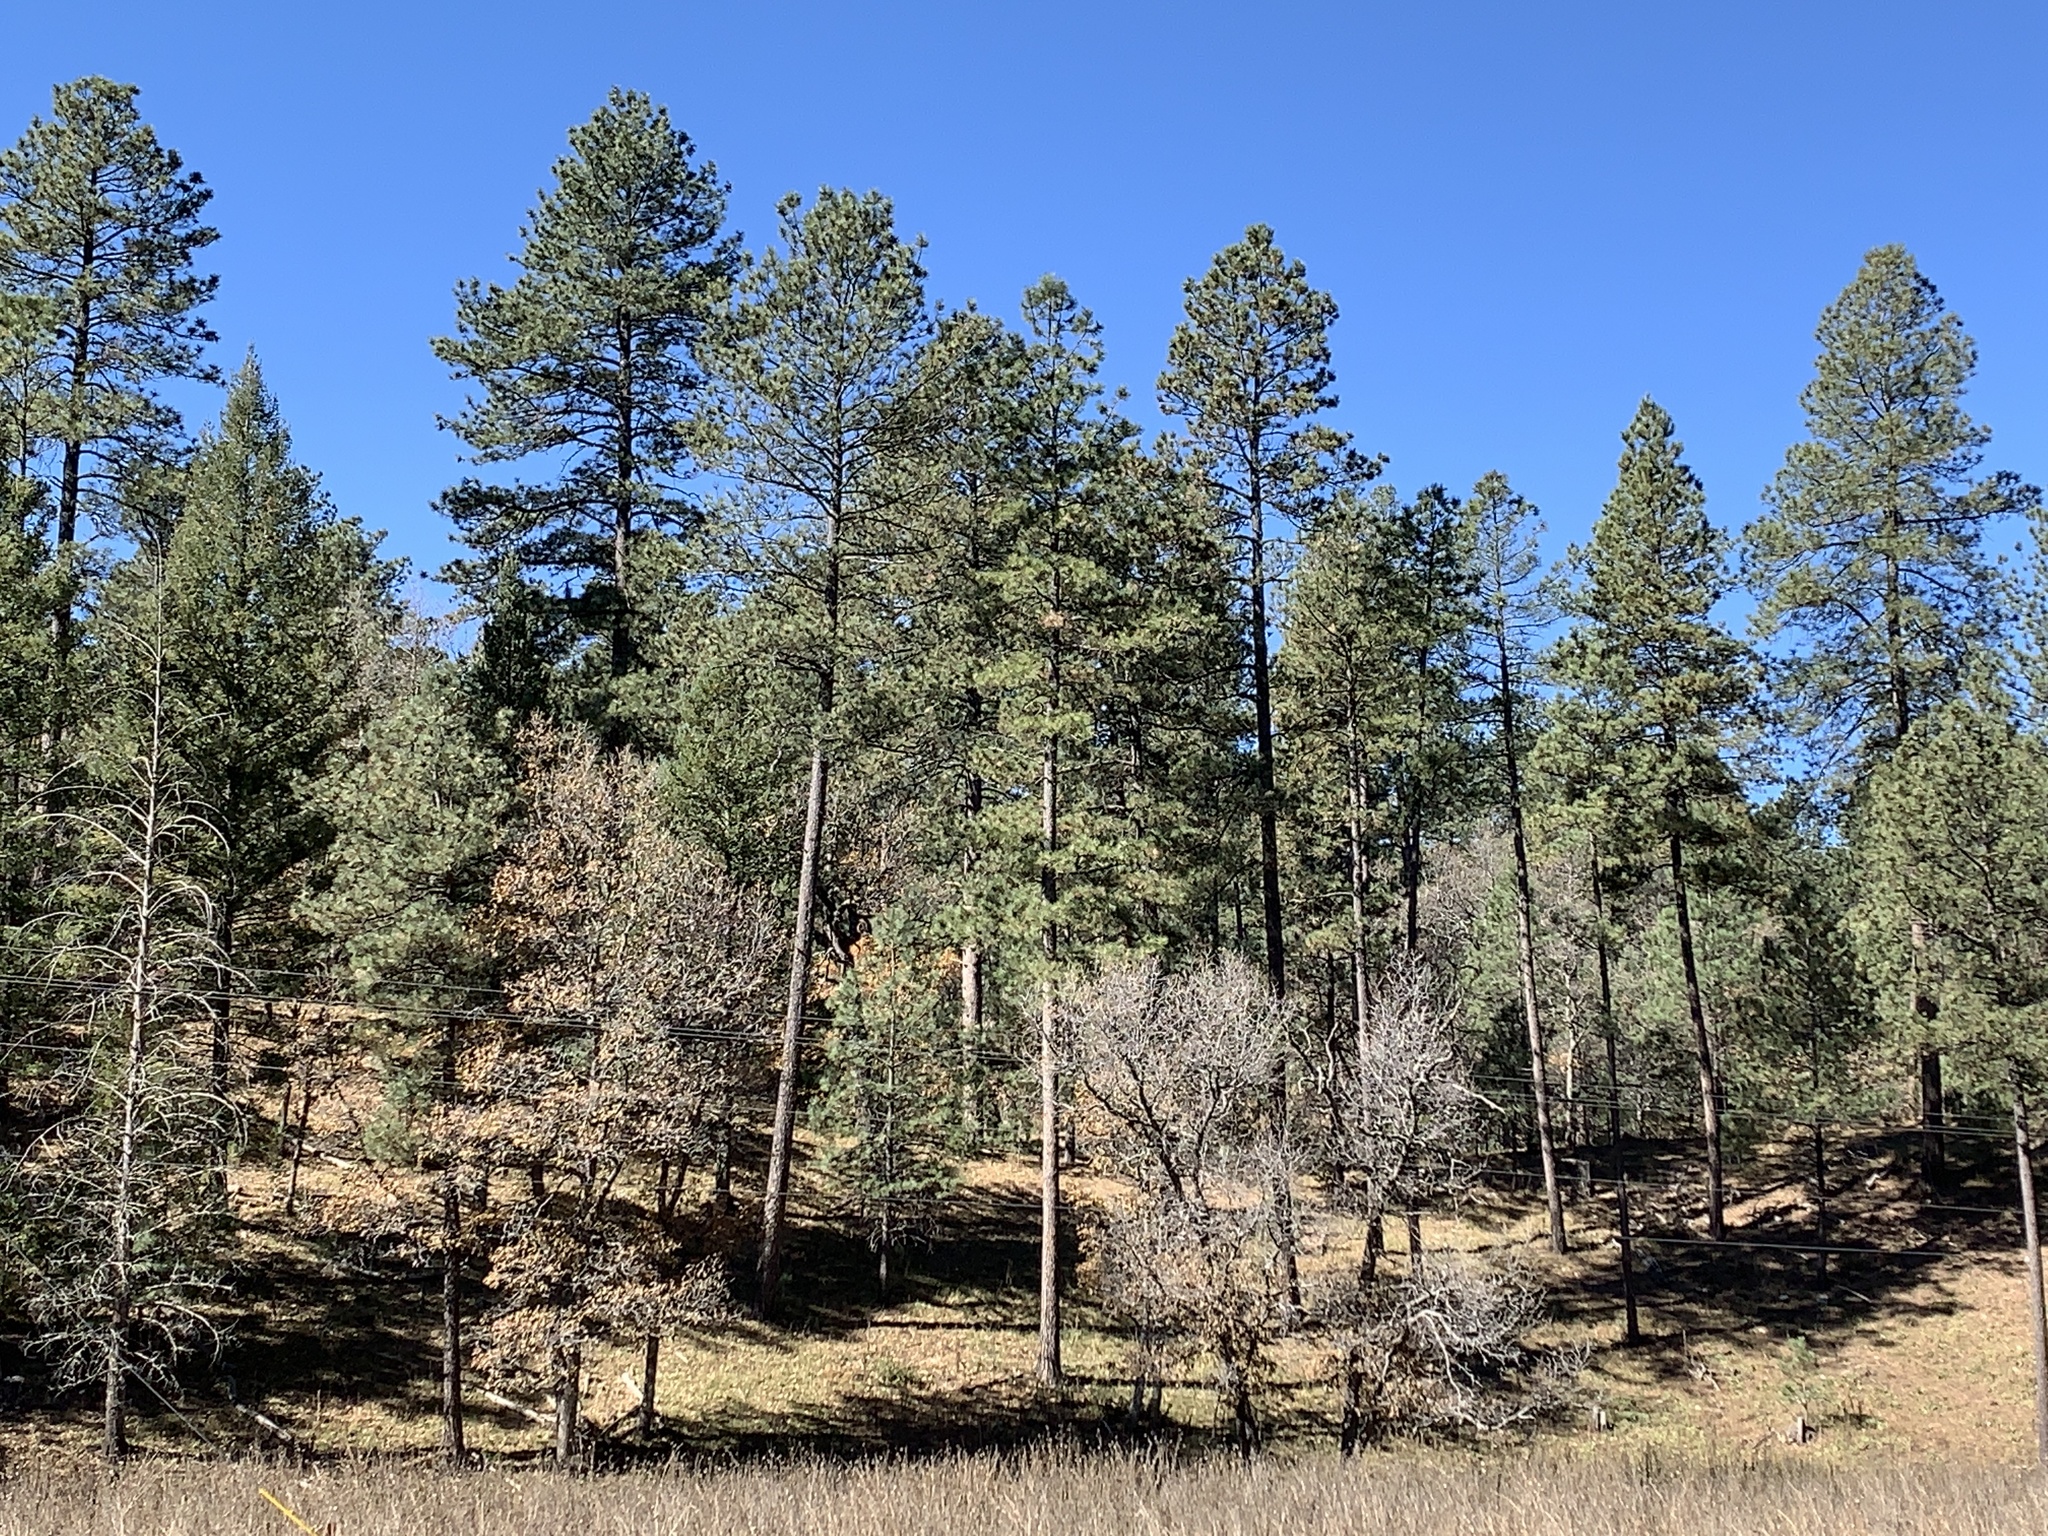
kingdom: Plantae
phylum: Tracheophyta
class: Pinopsida
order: Pinales
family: Pinaceae
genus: Pinus
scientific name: Pinus ponderosa
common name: Western yellow-pine
